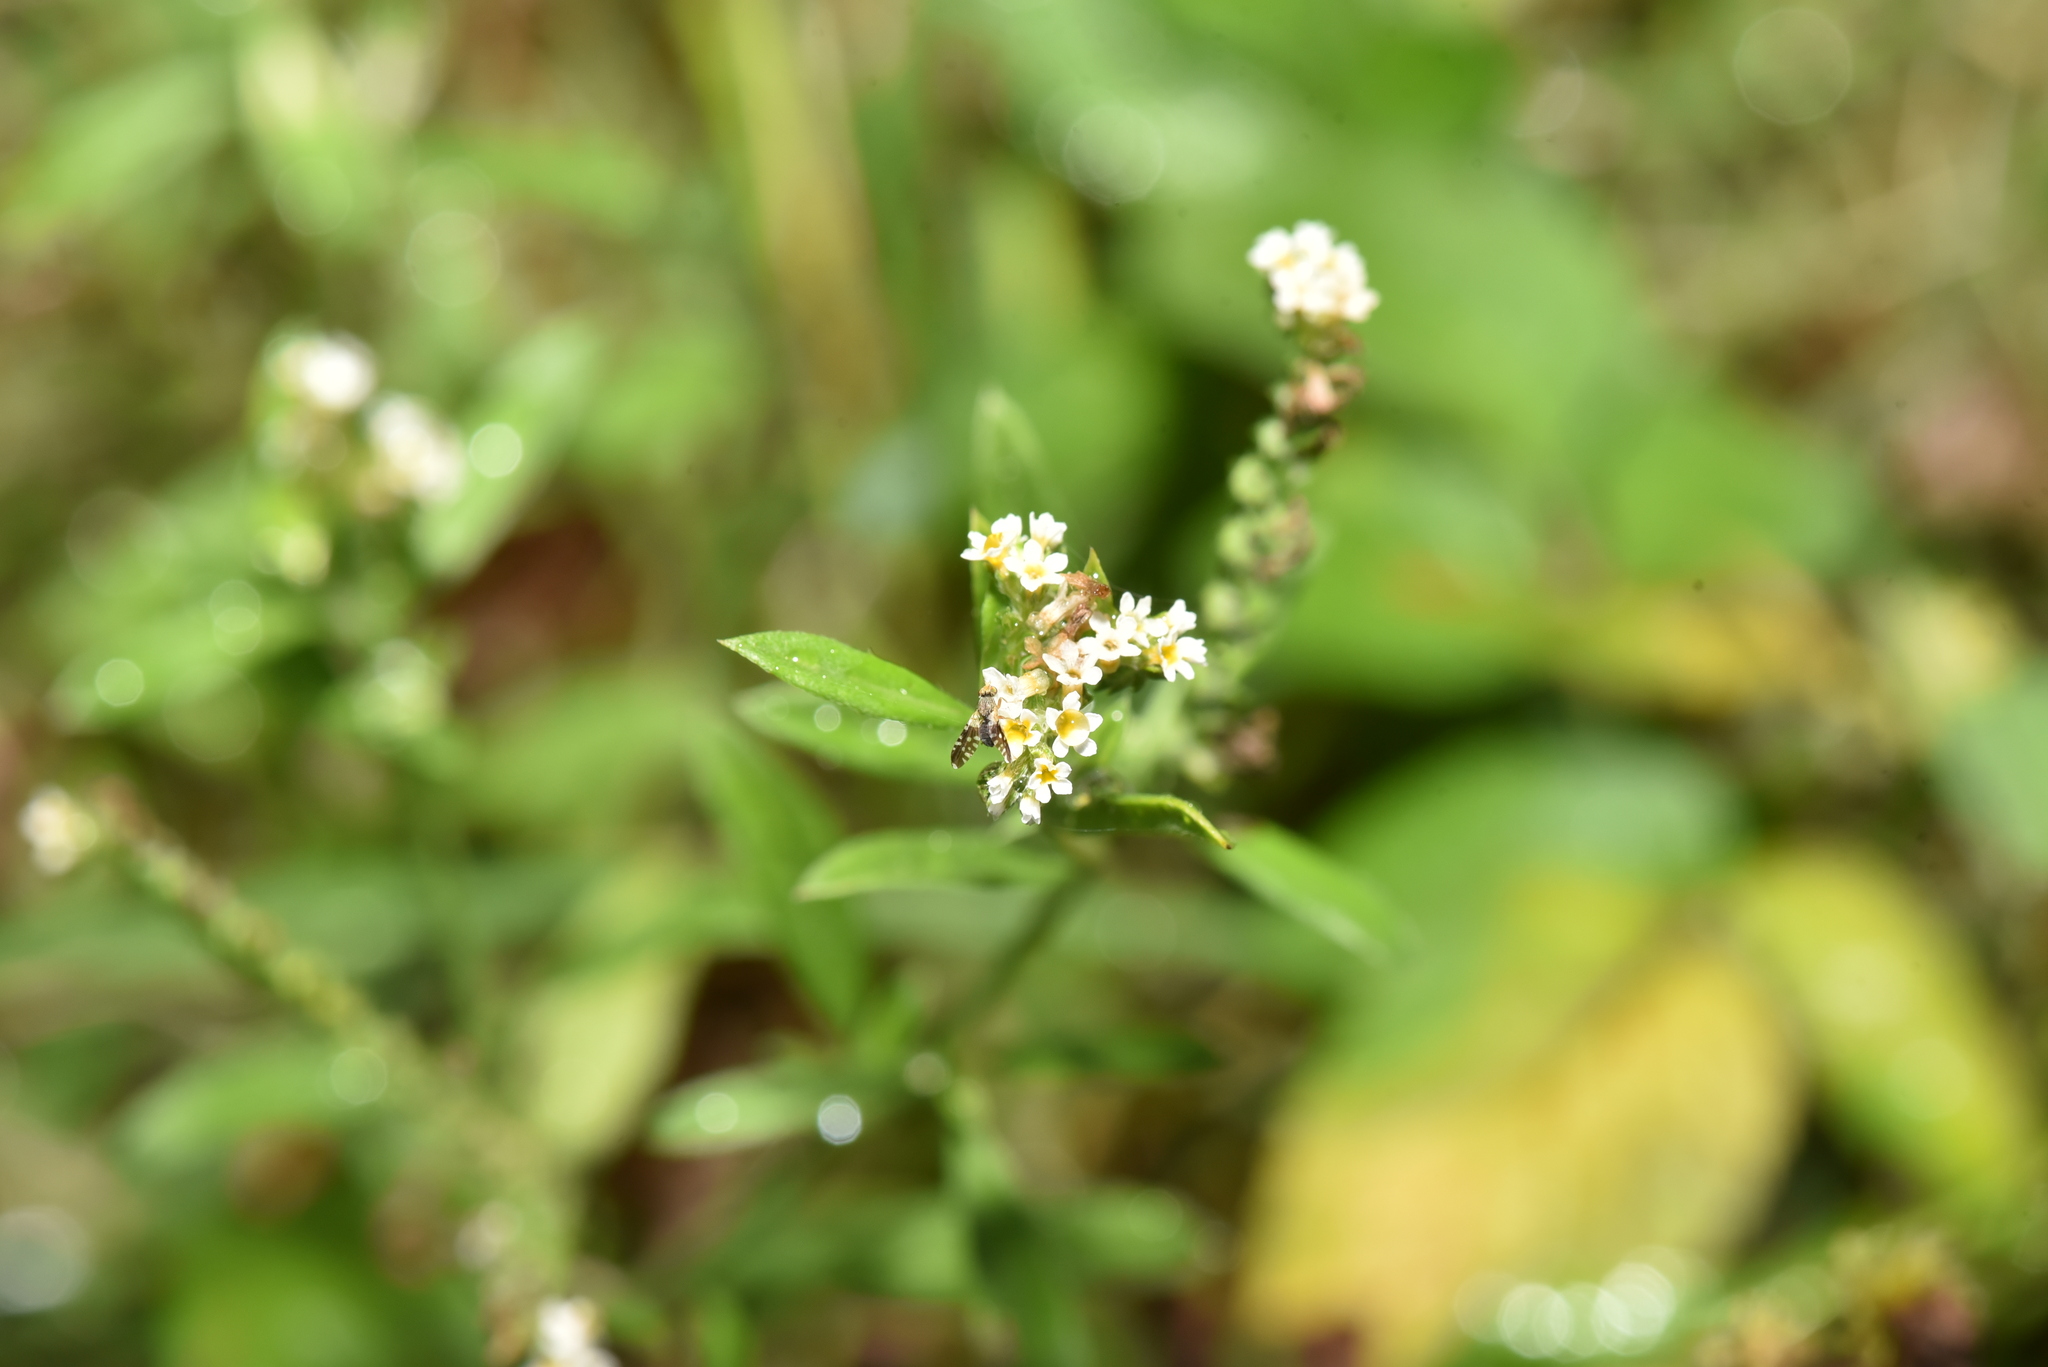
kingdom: Plantae
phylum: Tracheophyta
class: Magnoliopsida
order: Boraginales
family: Heliotropiaceae
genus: Euploca
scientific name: Euploca procumbens
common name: Fourspike heliotrope
